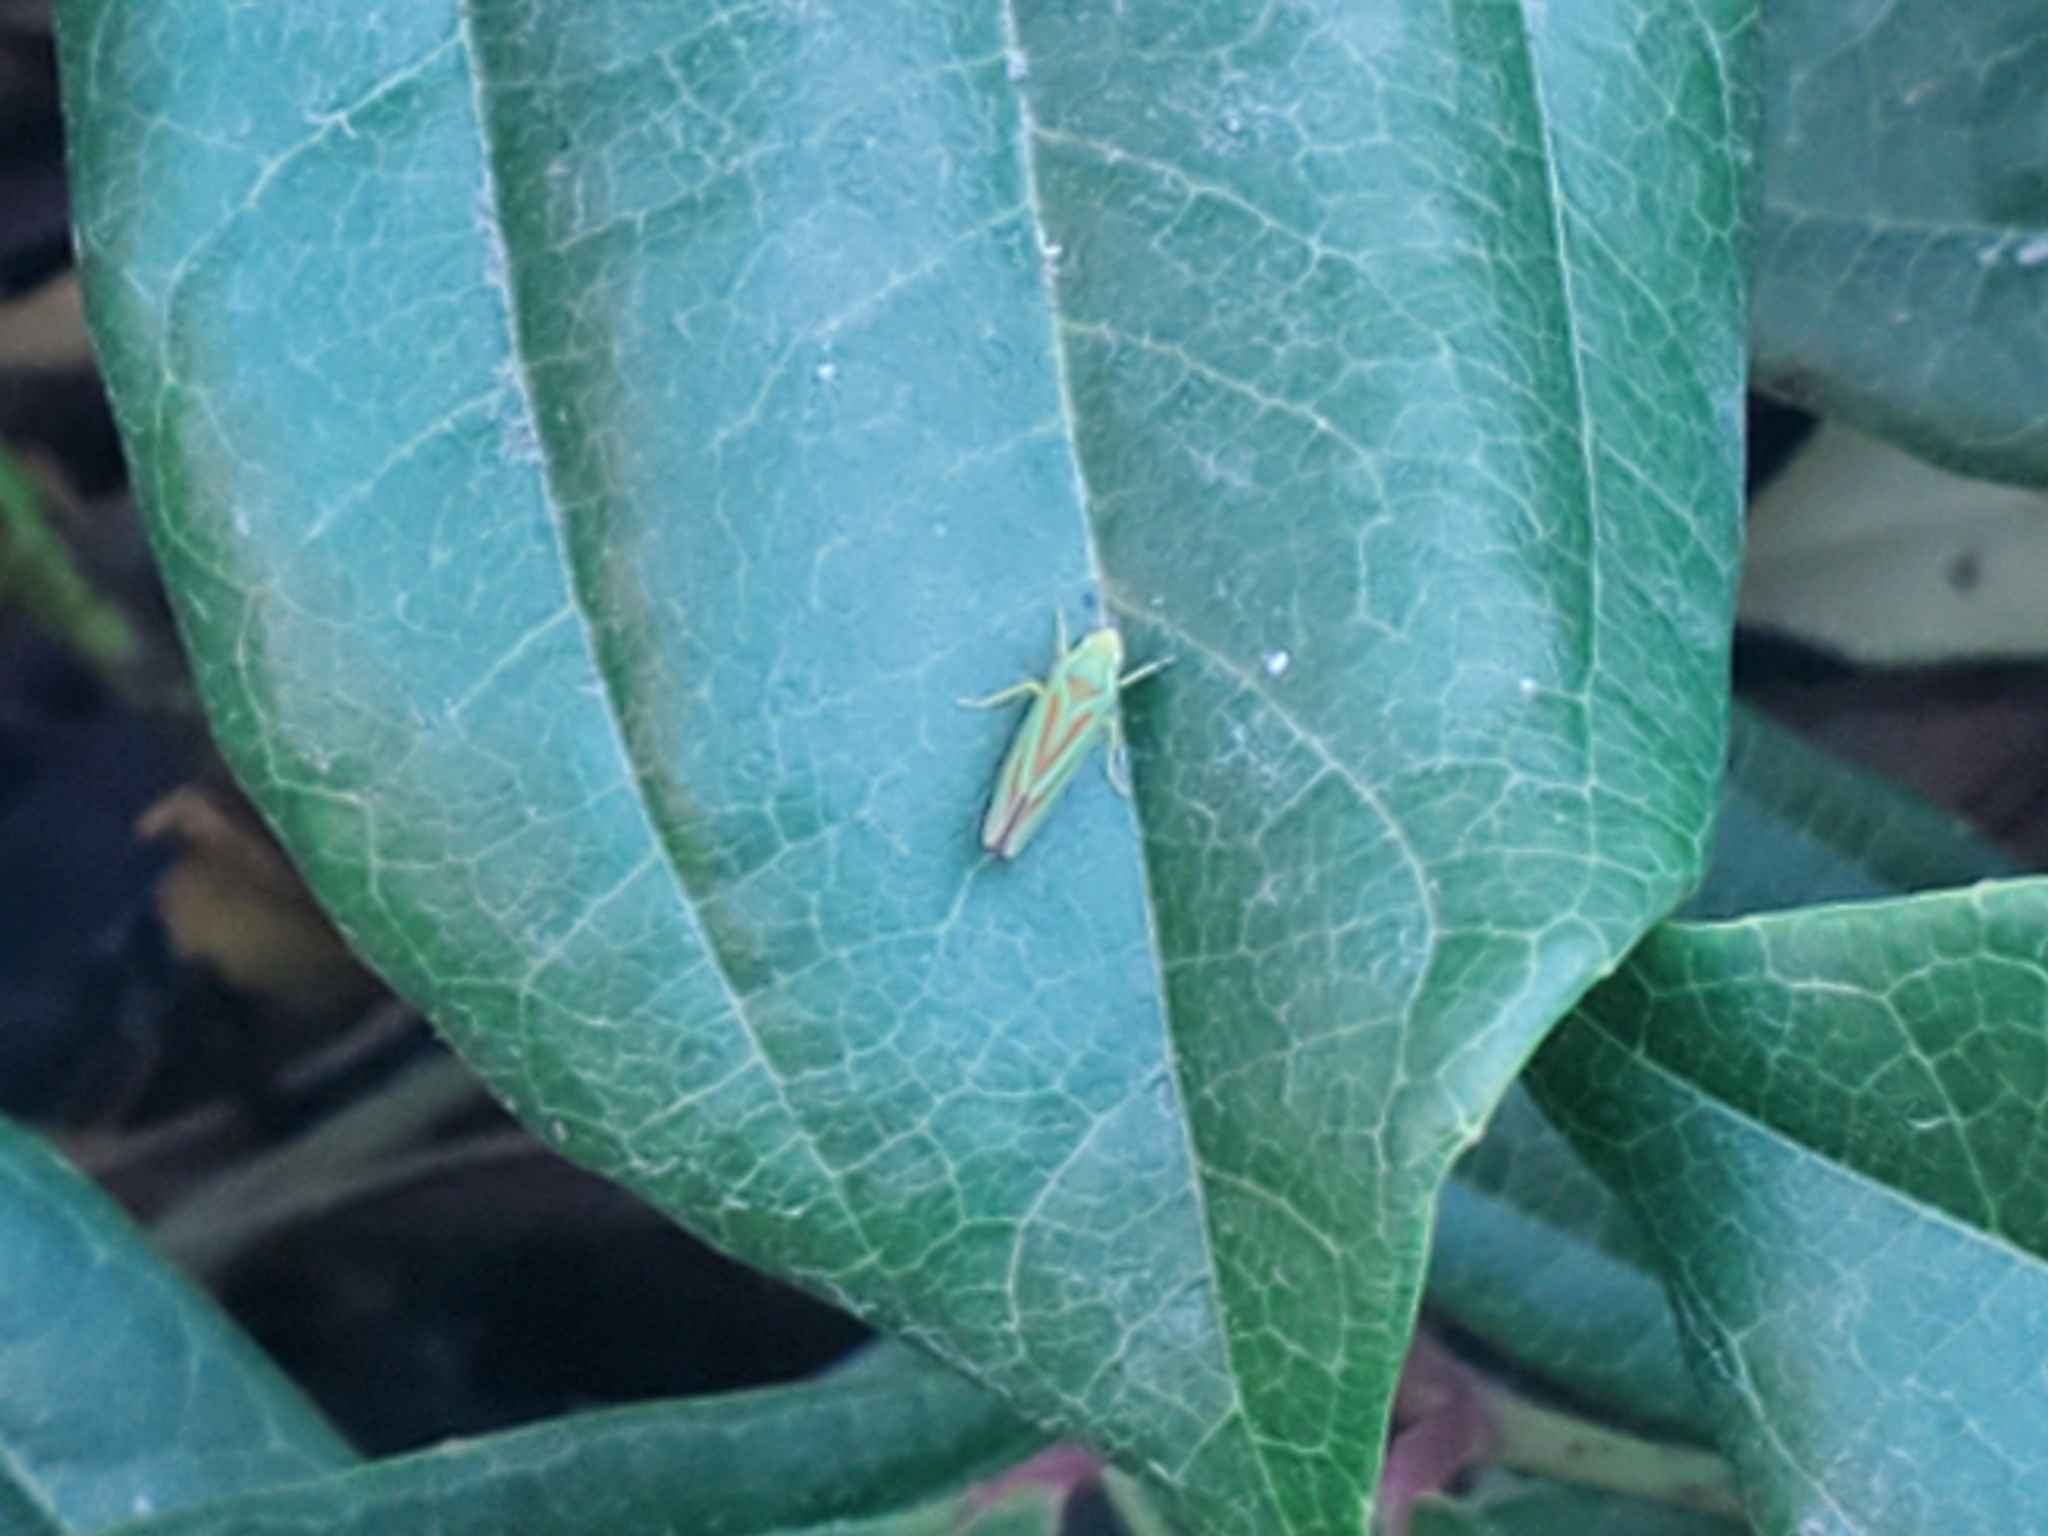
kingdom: Animalia
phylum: Arthropoda
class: Insecta
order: Hemiptera
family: Cicadellidae
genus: Graphocephala
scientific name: Graphocephala fennahi
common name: Rhododendron leafhopper
